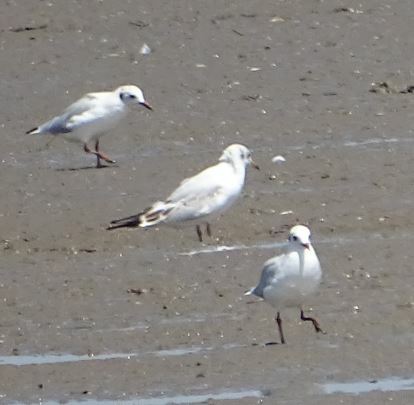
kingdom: Animalia
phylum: Chordata
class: Aves
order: Charadriiformes
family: Laridae
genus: Chroicocephalus
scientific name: Chroicocephalus ridibundus
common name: Black-headed gull
